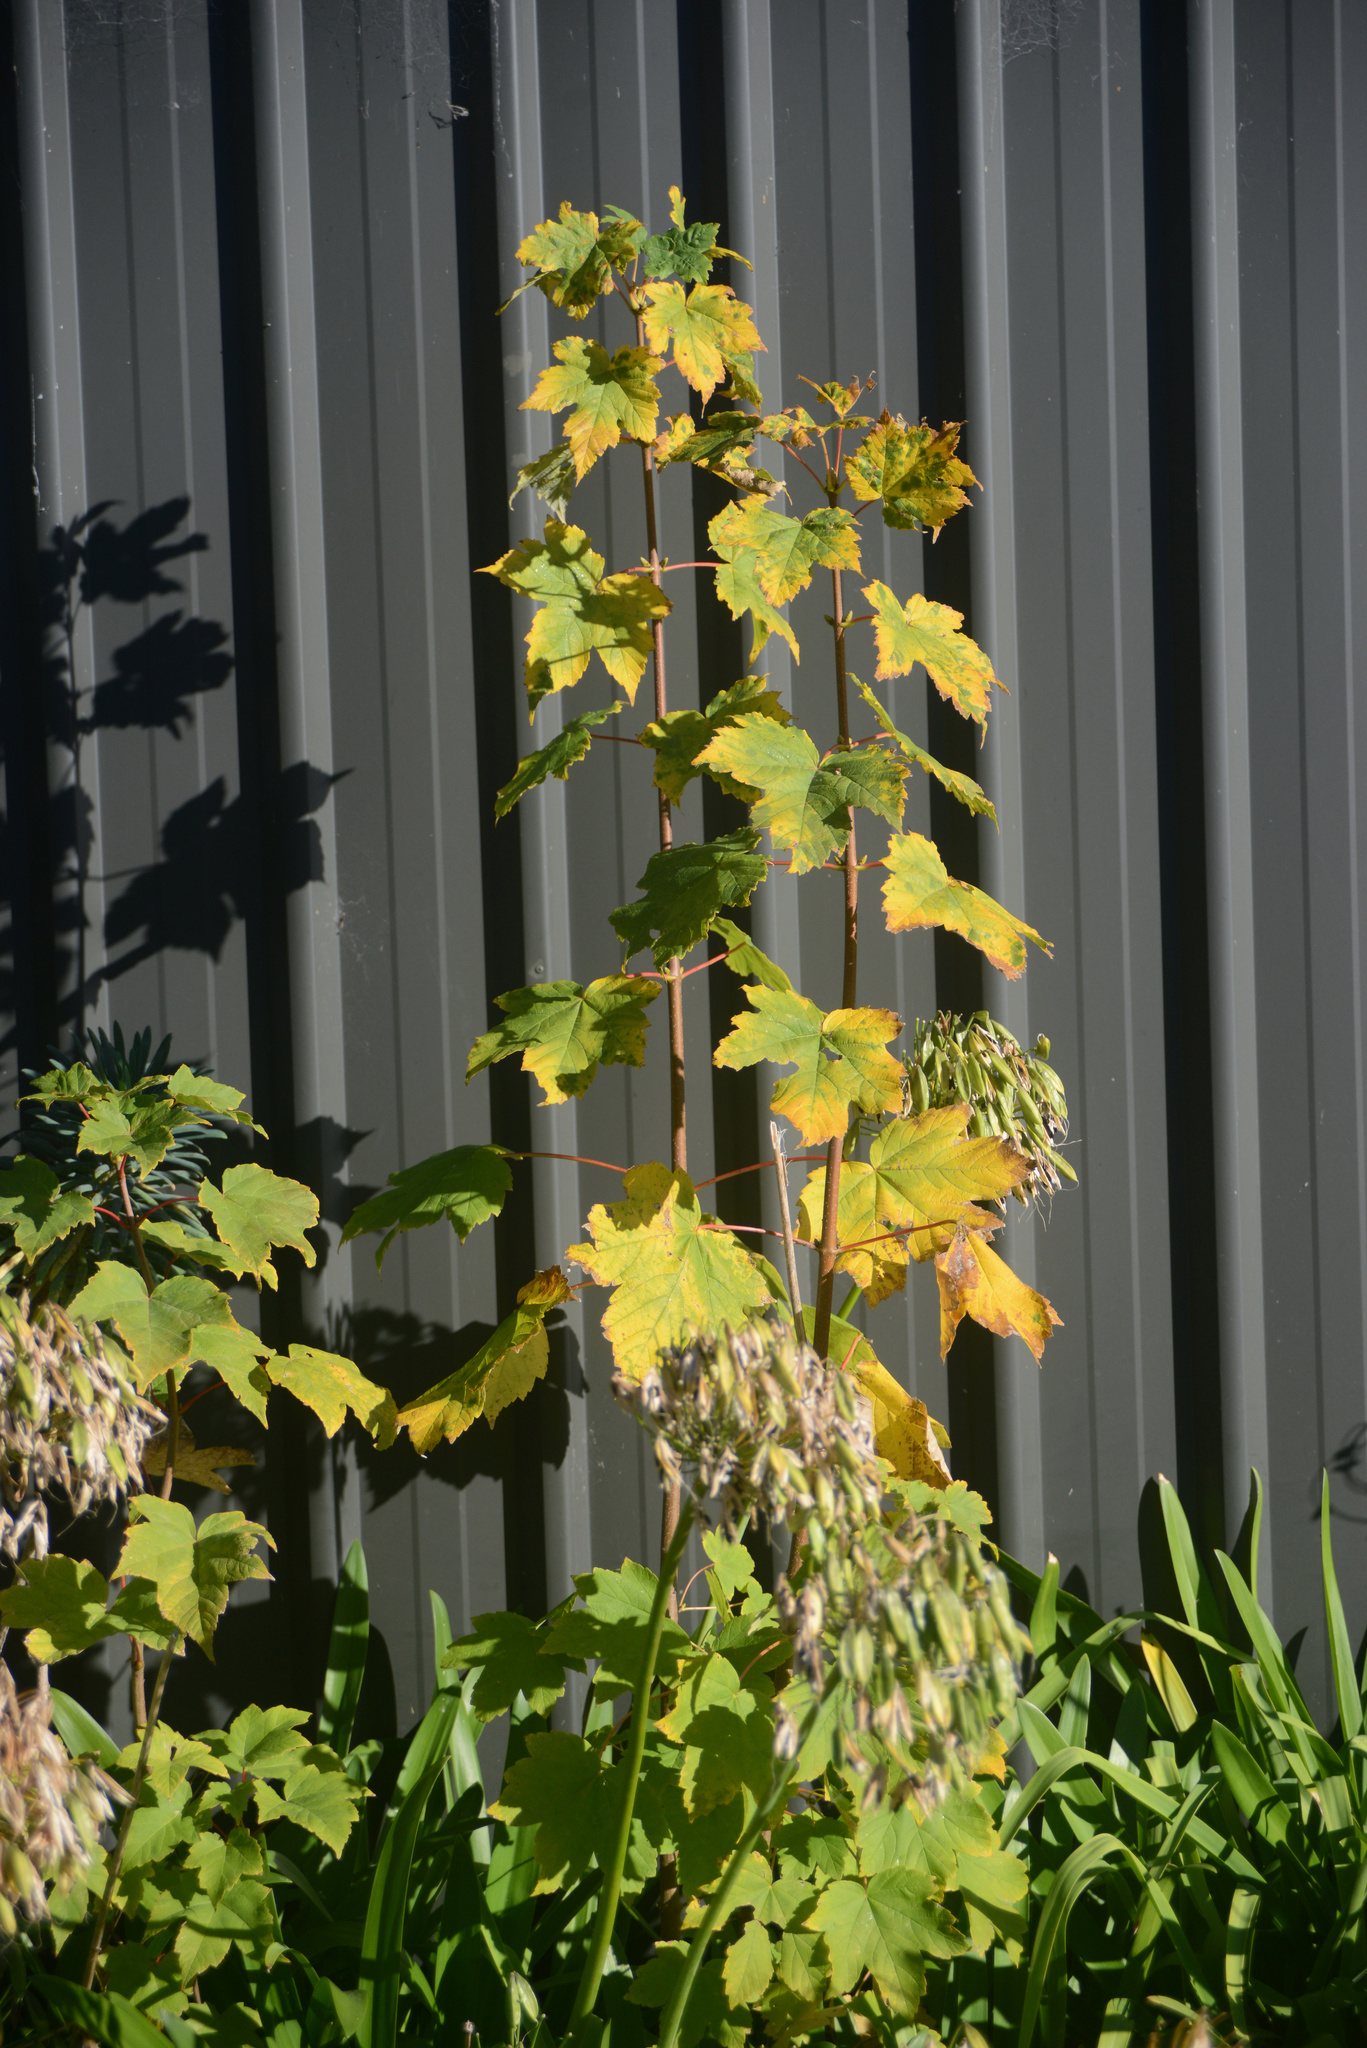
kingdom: Plantae
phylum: Tracheophyta
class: Magnoliopsida
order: Sapindales
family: Sapindaceae
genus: Acer
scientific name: Acer pseudoplatanus
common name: Sycamore
